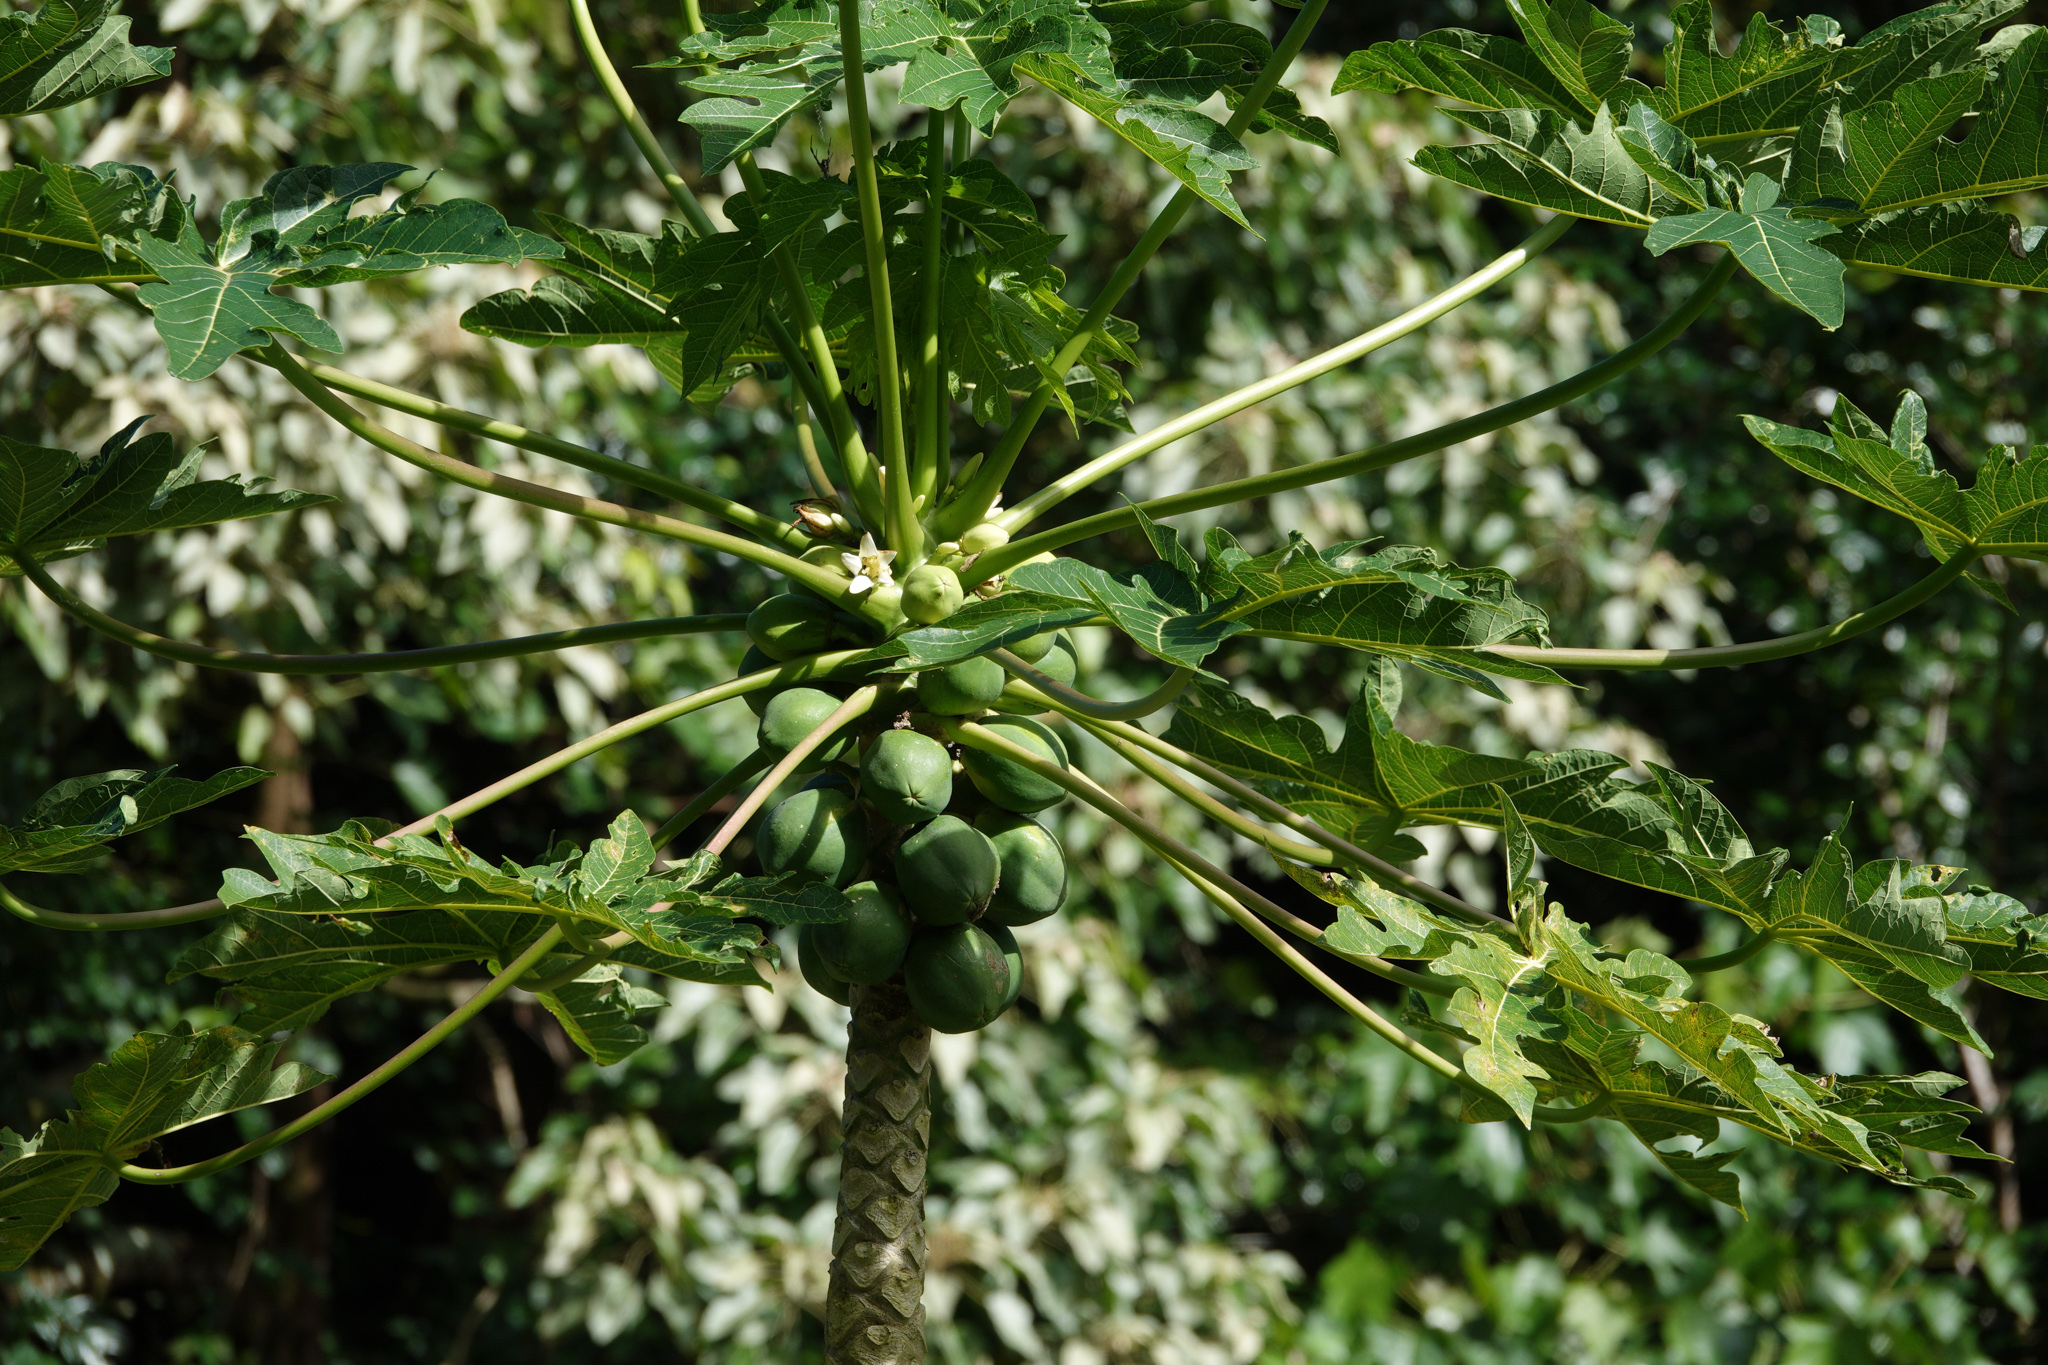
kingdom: Plantae
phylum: Tracheophyta
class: Magnoliopsida
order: Brassicales
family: Caricaceae
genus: Carica
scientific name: Carica papaya
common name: Papaya
